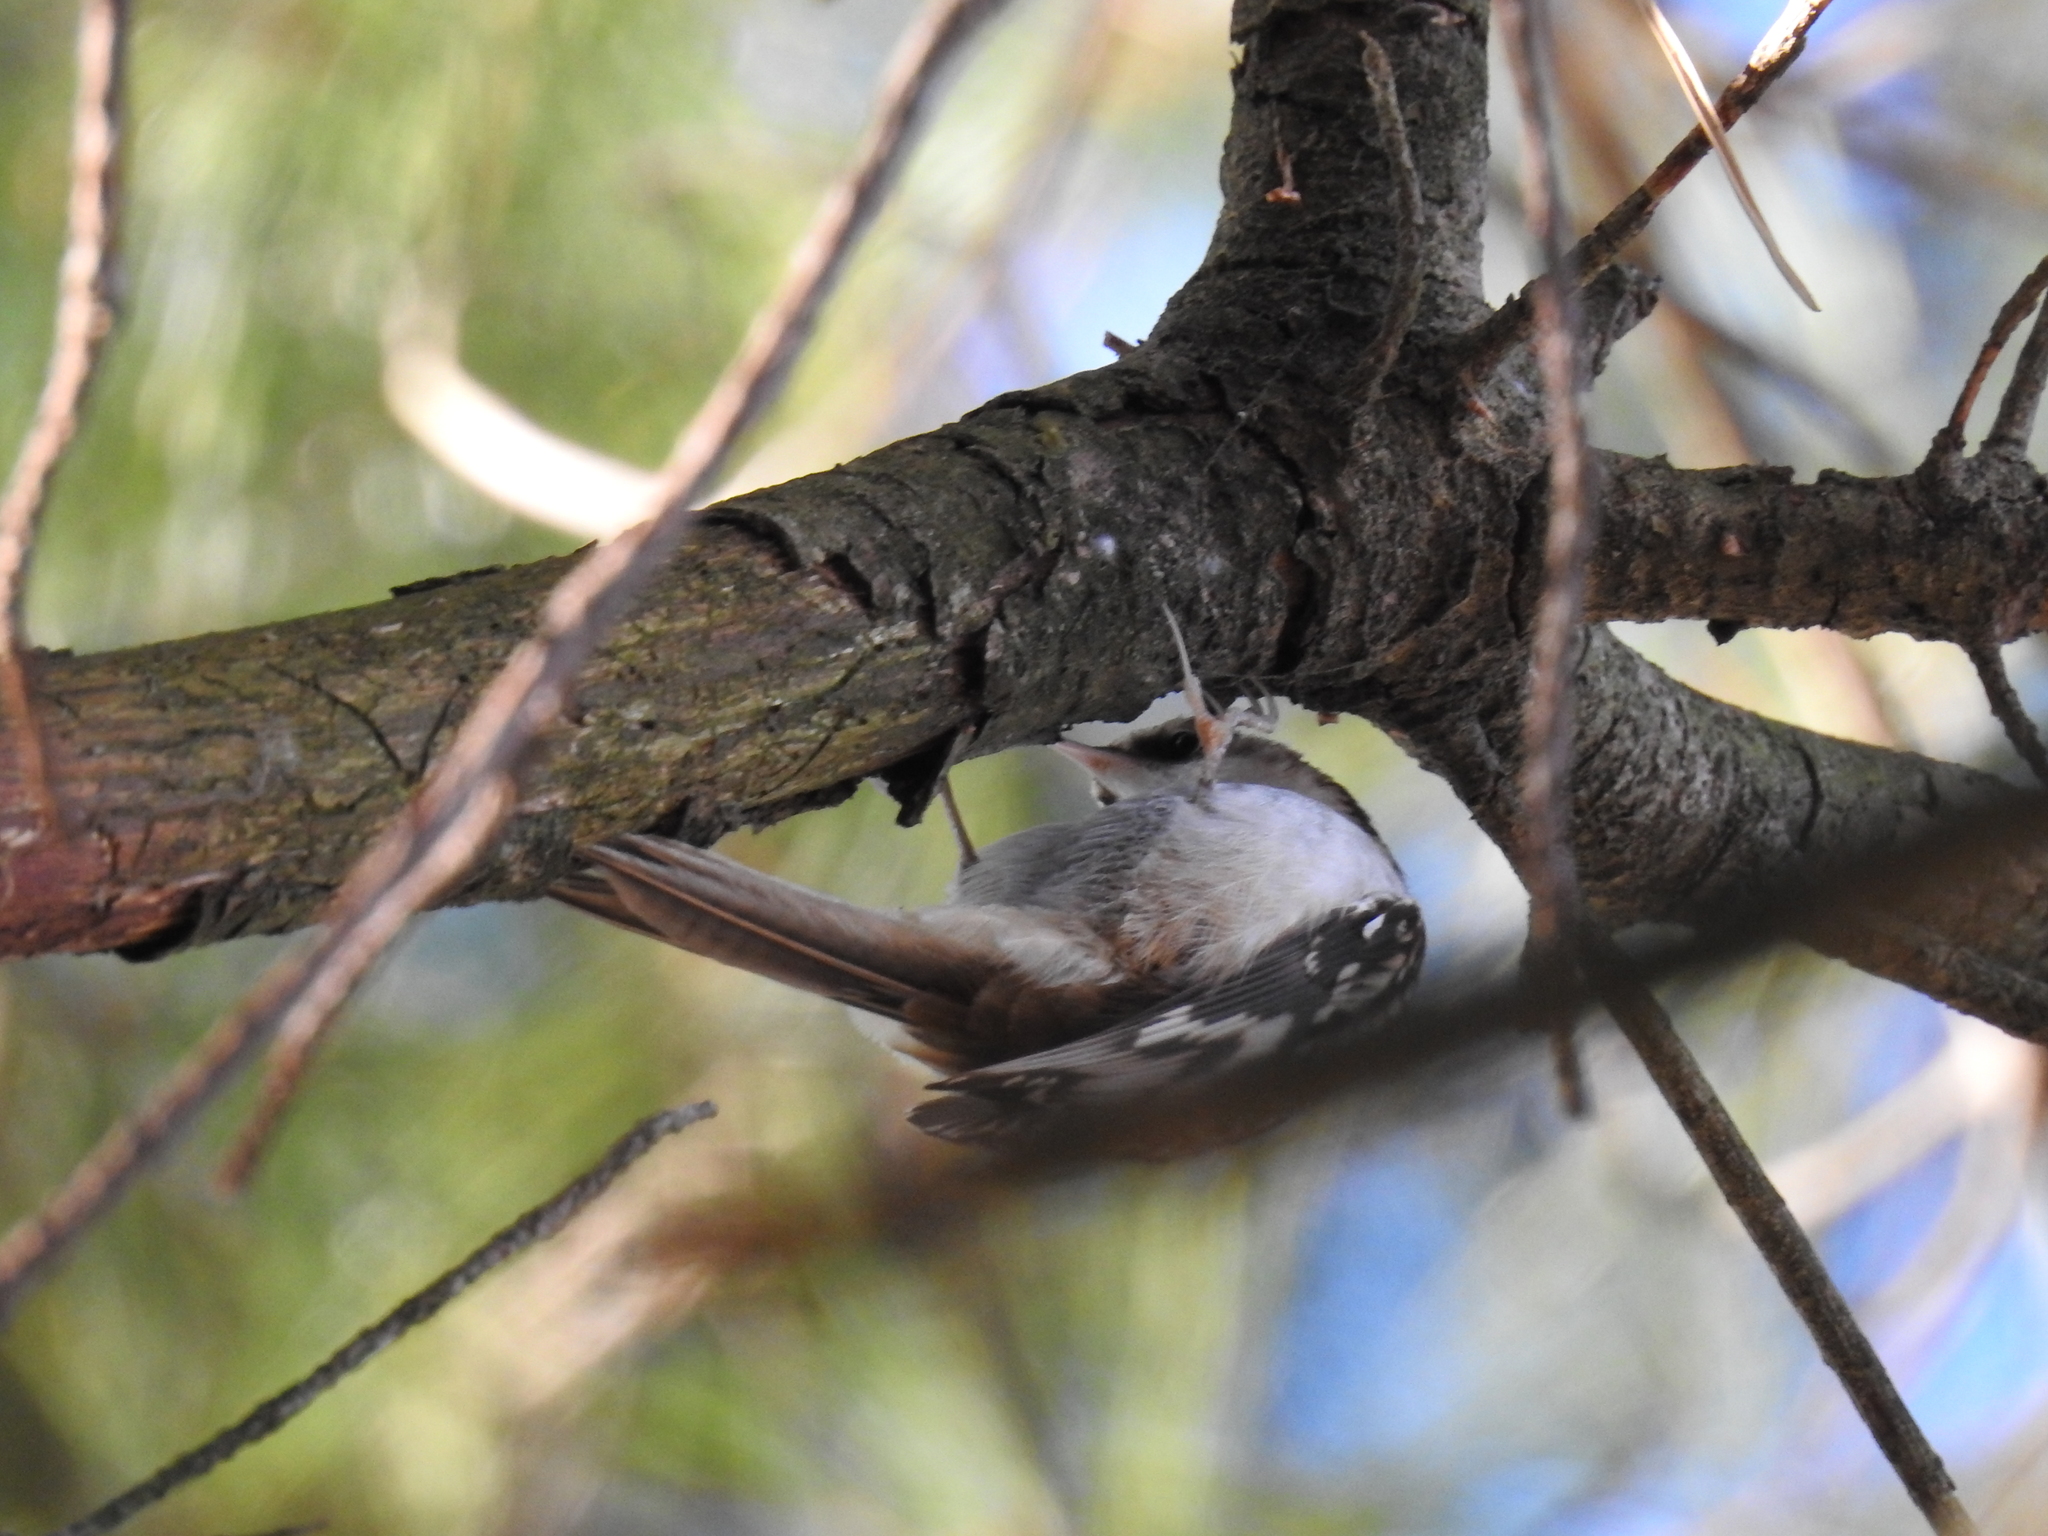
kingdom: Animalia
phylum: Chordata
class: Aves
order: Passeriformes
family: Certhiidae
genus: Certhia
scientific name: Certhia americana
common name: Brown creeper
